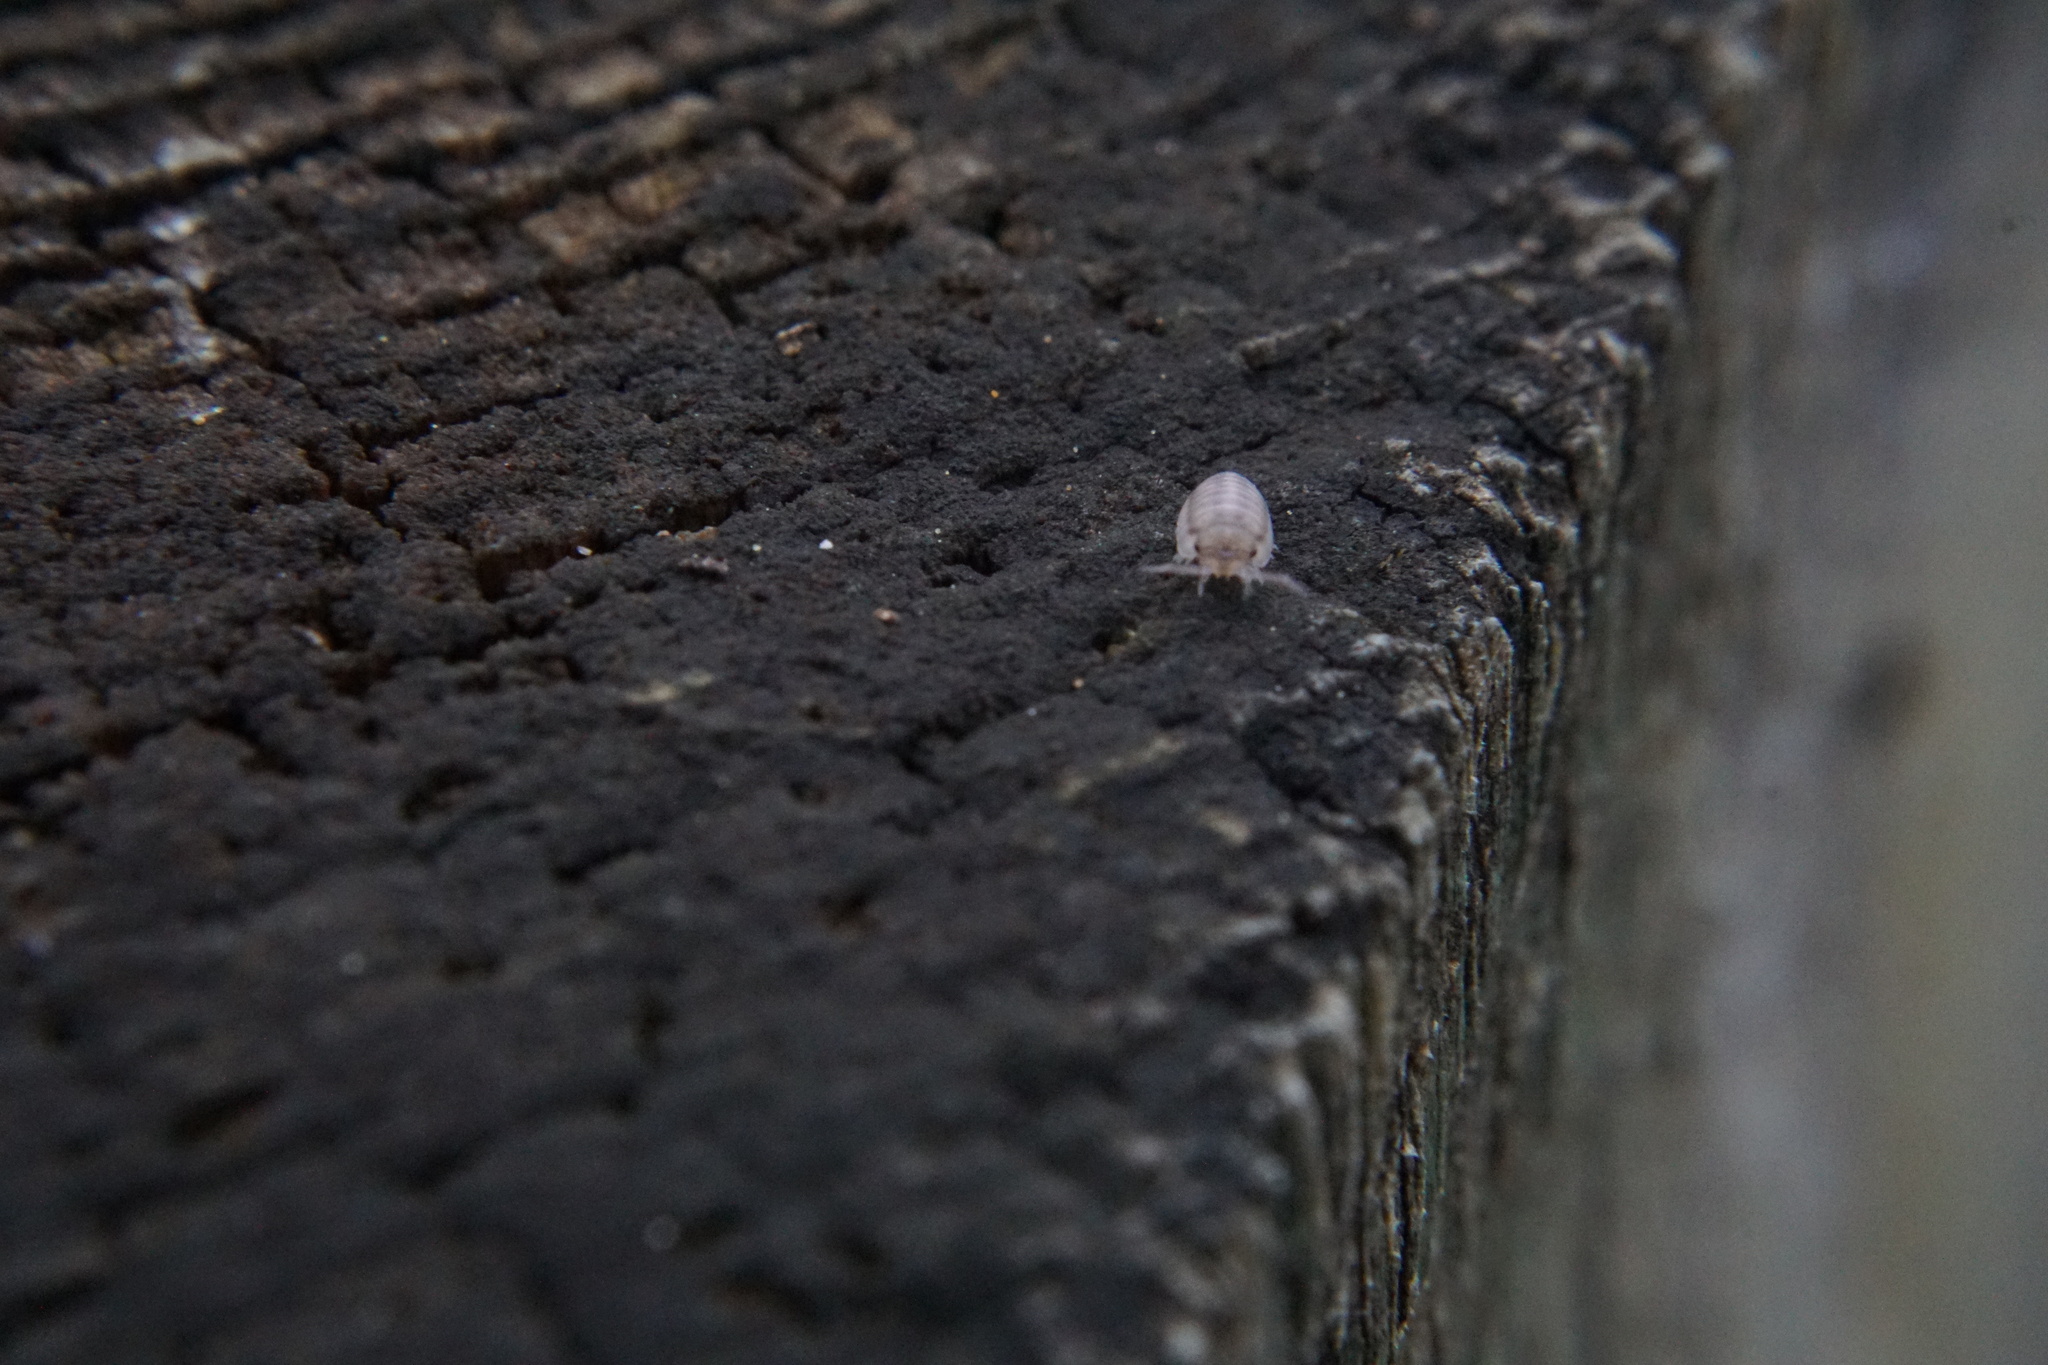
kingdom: Animalia
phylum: Arthropoda
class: Malacostraca
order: Isopoda
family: Armadillidiidae
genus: Armadillidium
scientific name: Armadillidium nasatum
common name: Isopod
